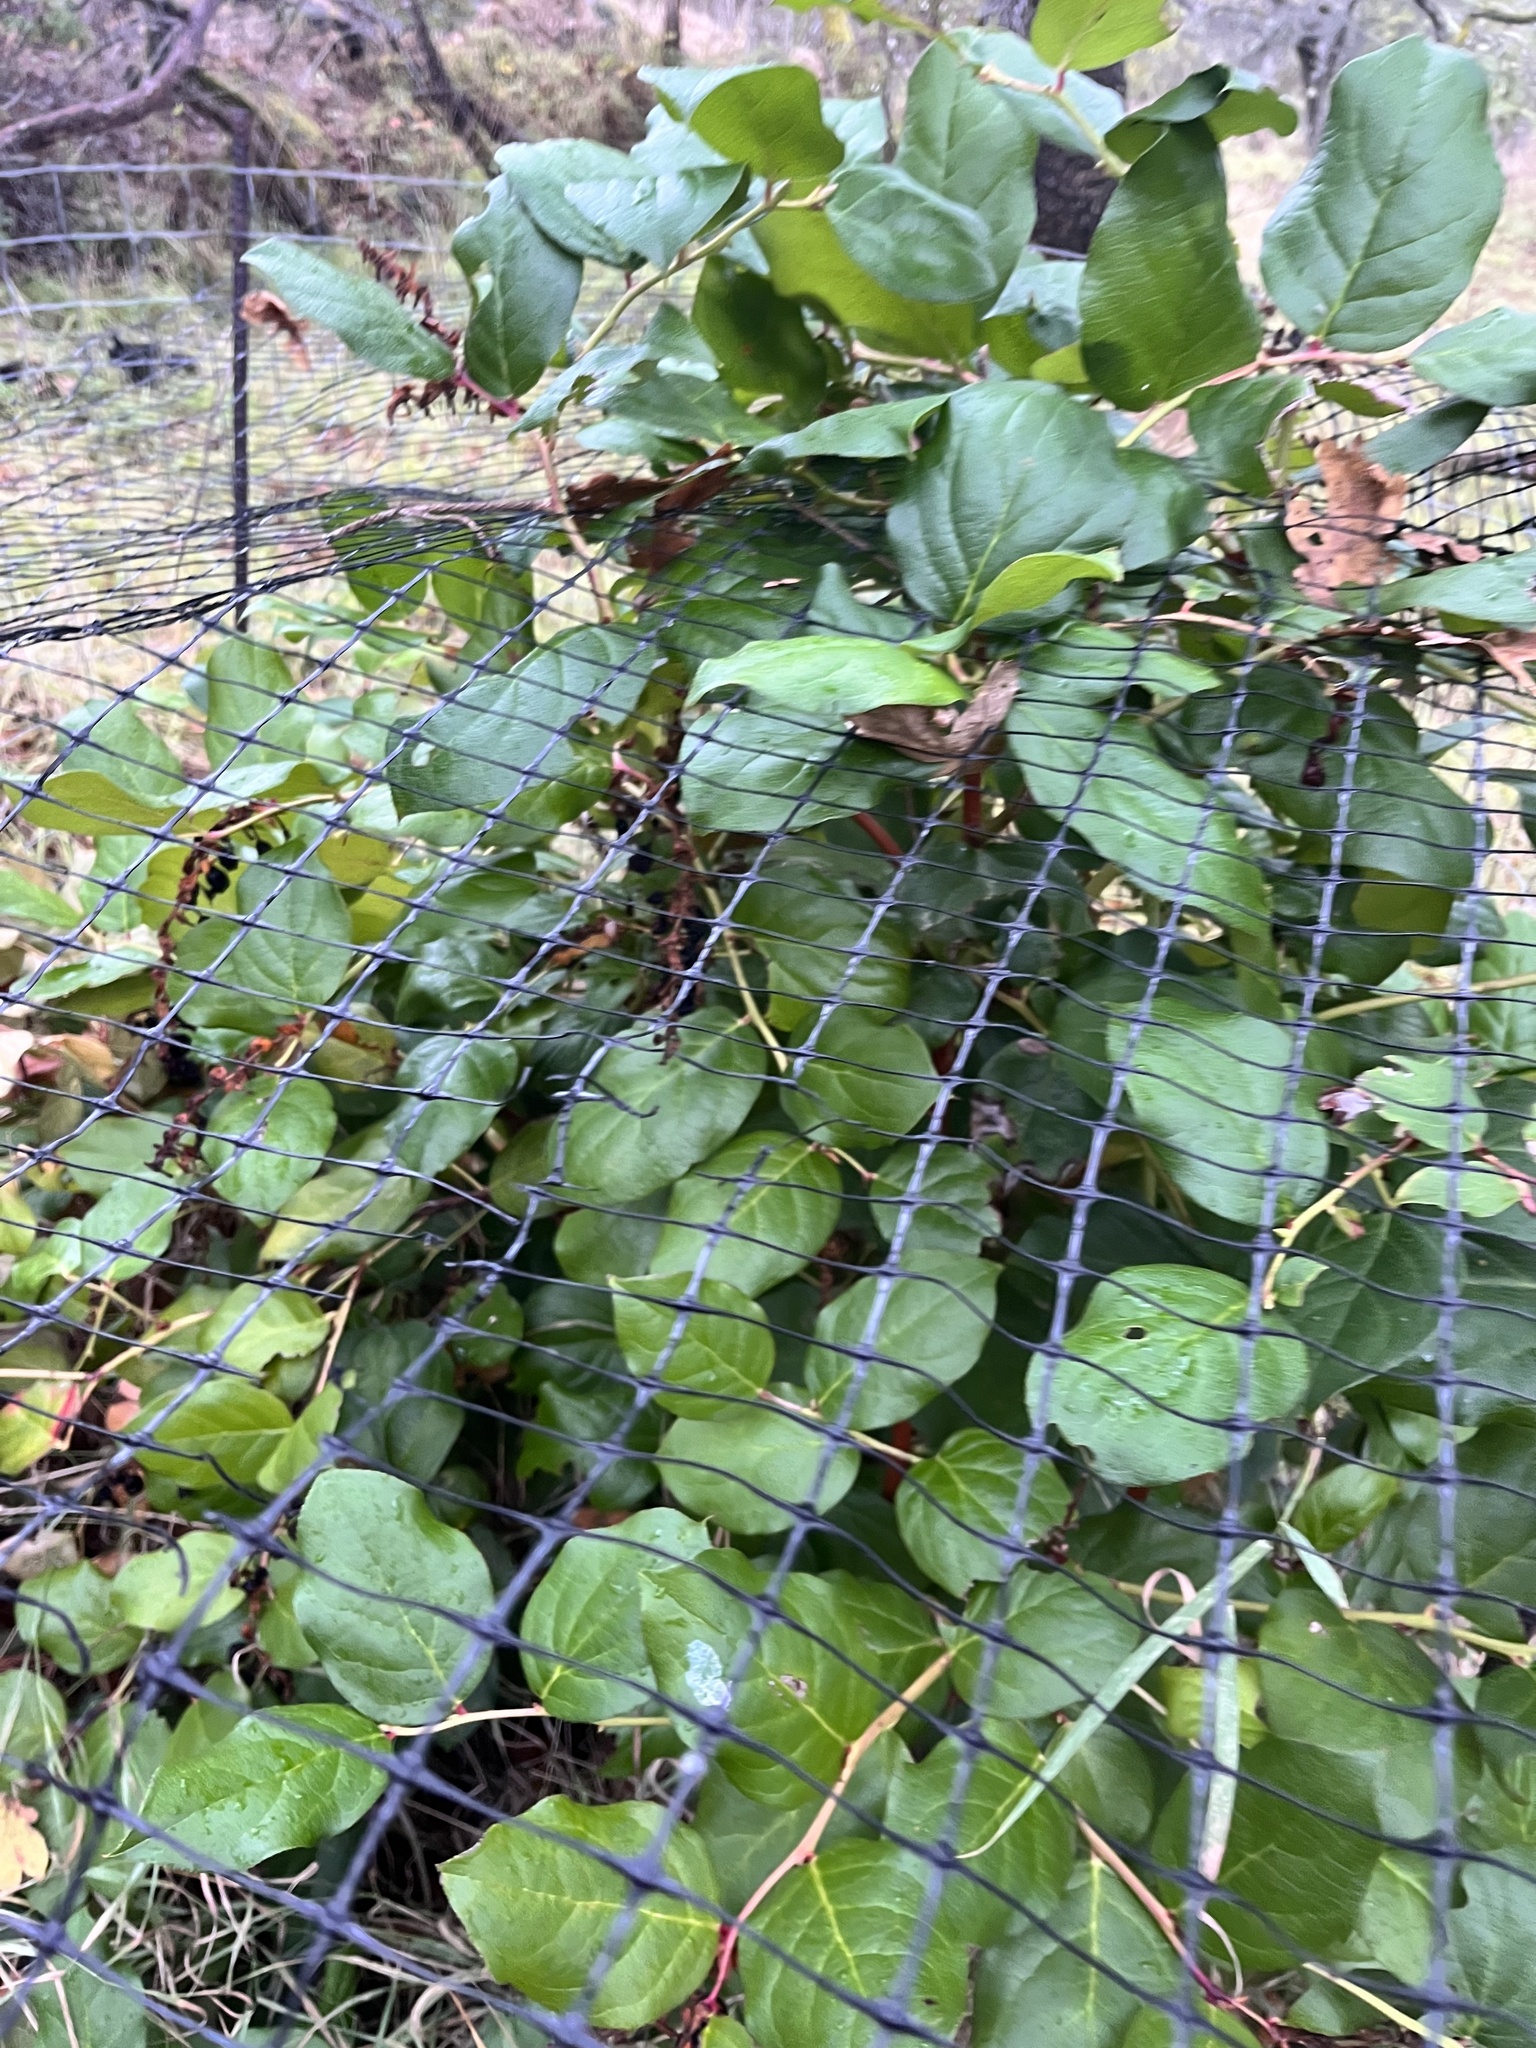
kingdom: Plantae
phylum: Tracheophyta
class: Magnoliopsida
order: Ericales
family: Ericaceae
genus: Gaultheria
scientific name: Gaultheria shallon
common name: Shallon
